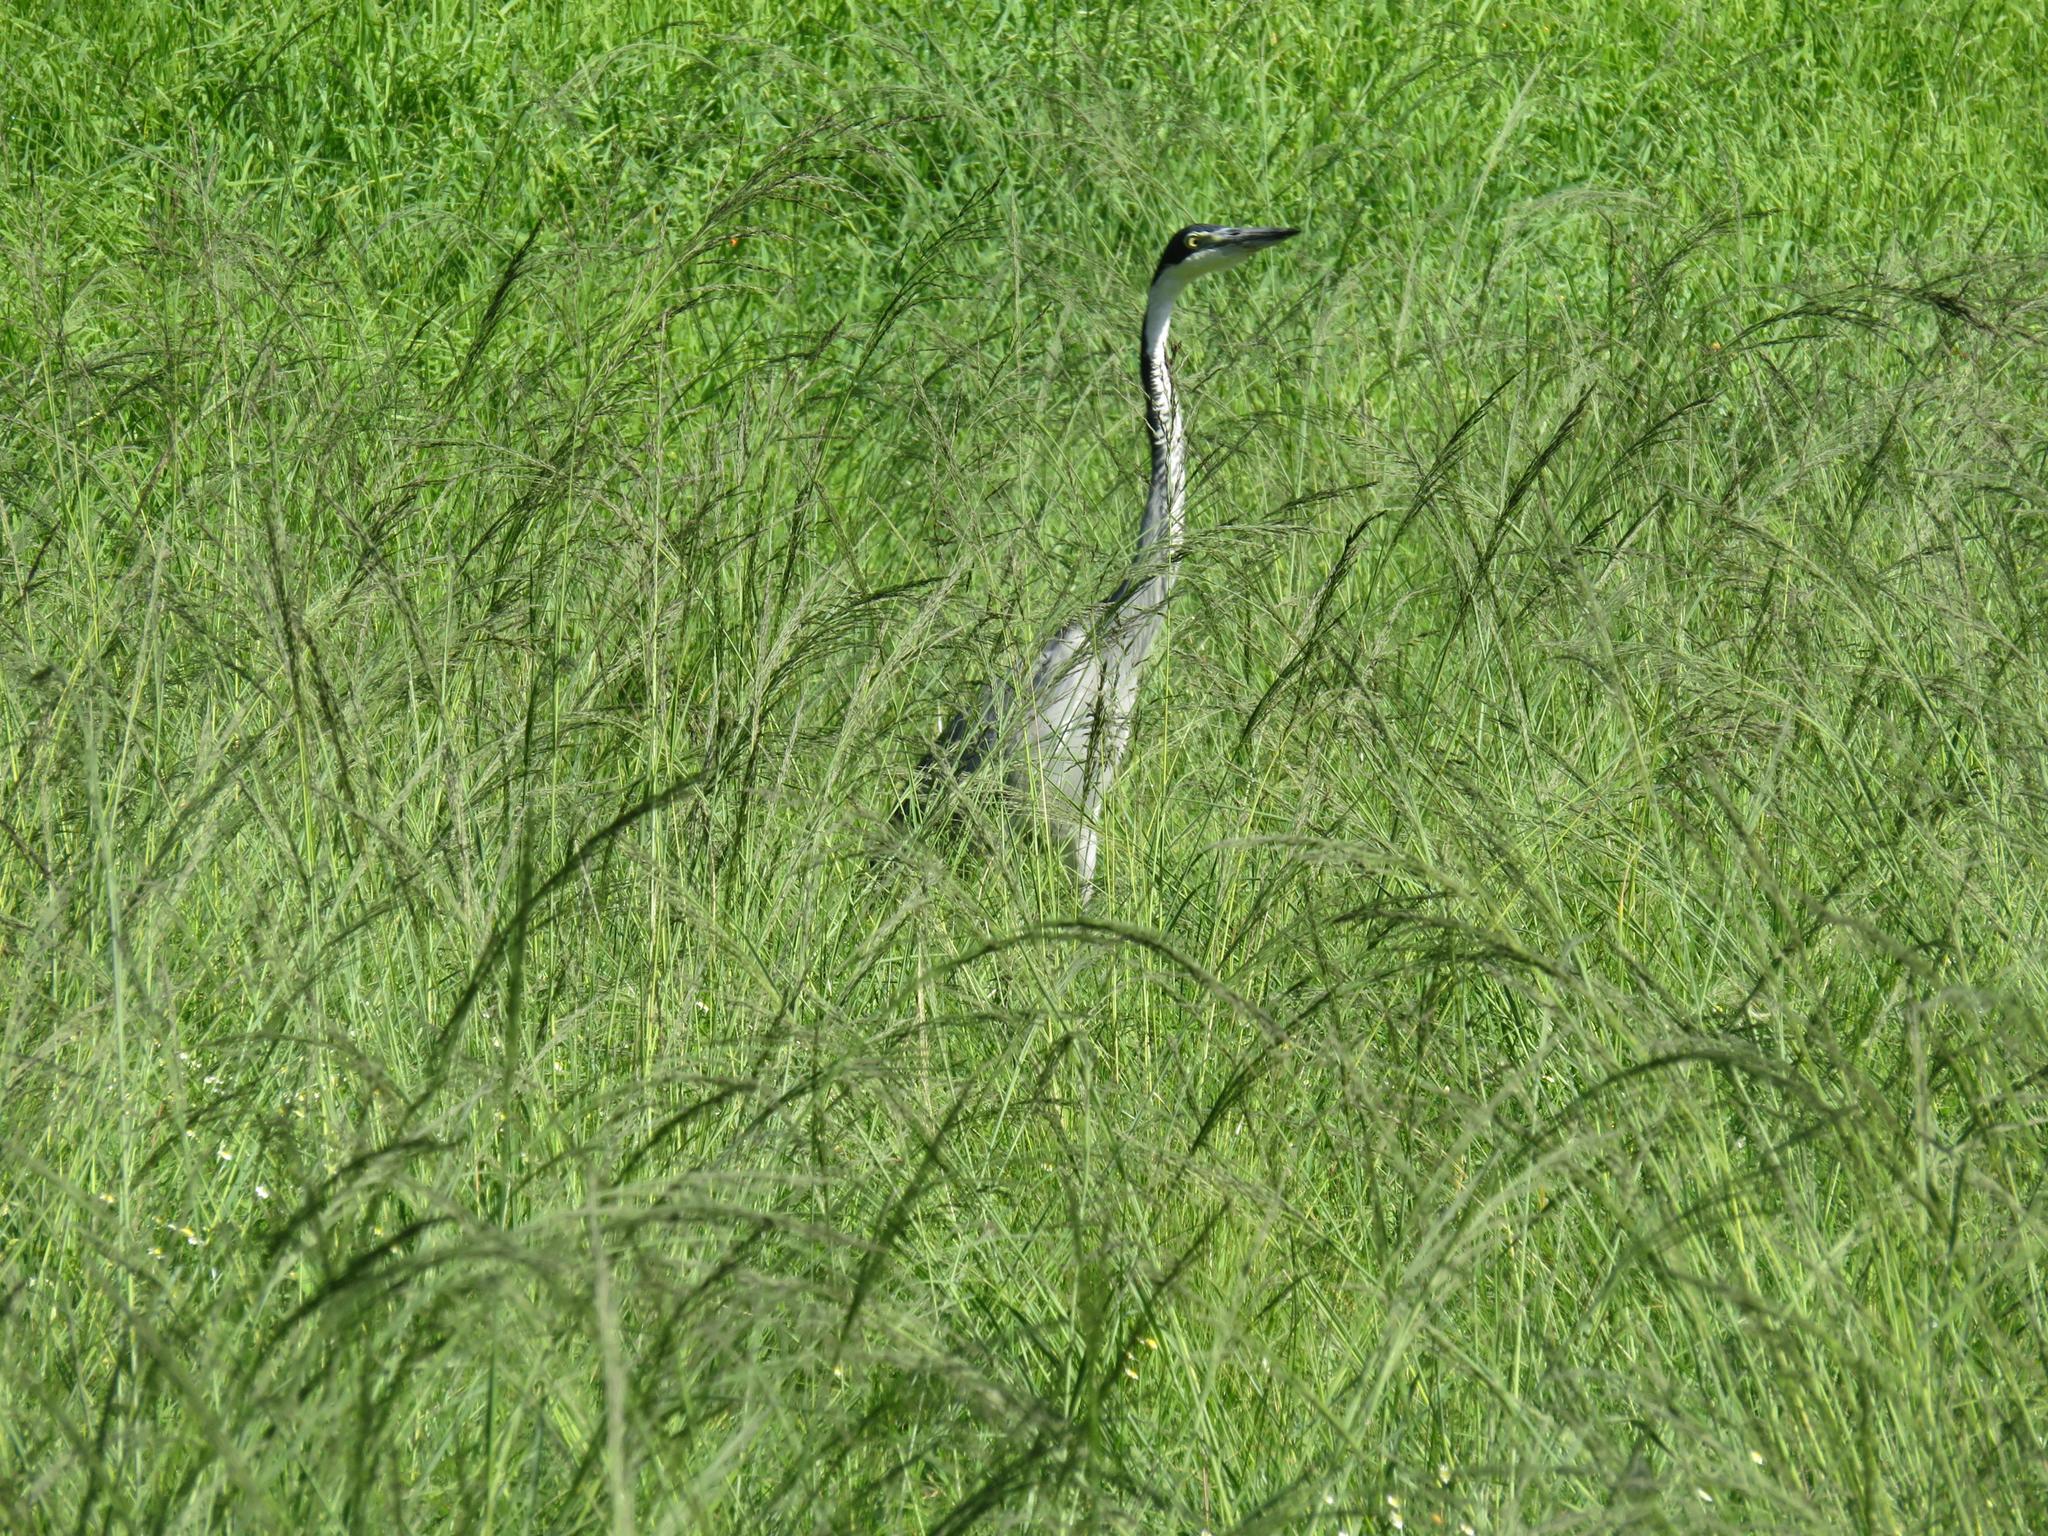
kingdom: Animalia
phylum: Chordata
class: Aves
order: Pelecaniformes
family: Ardeidae
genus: Ardea
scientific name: Ardea melanocephala
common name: Black-headed heron
